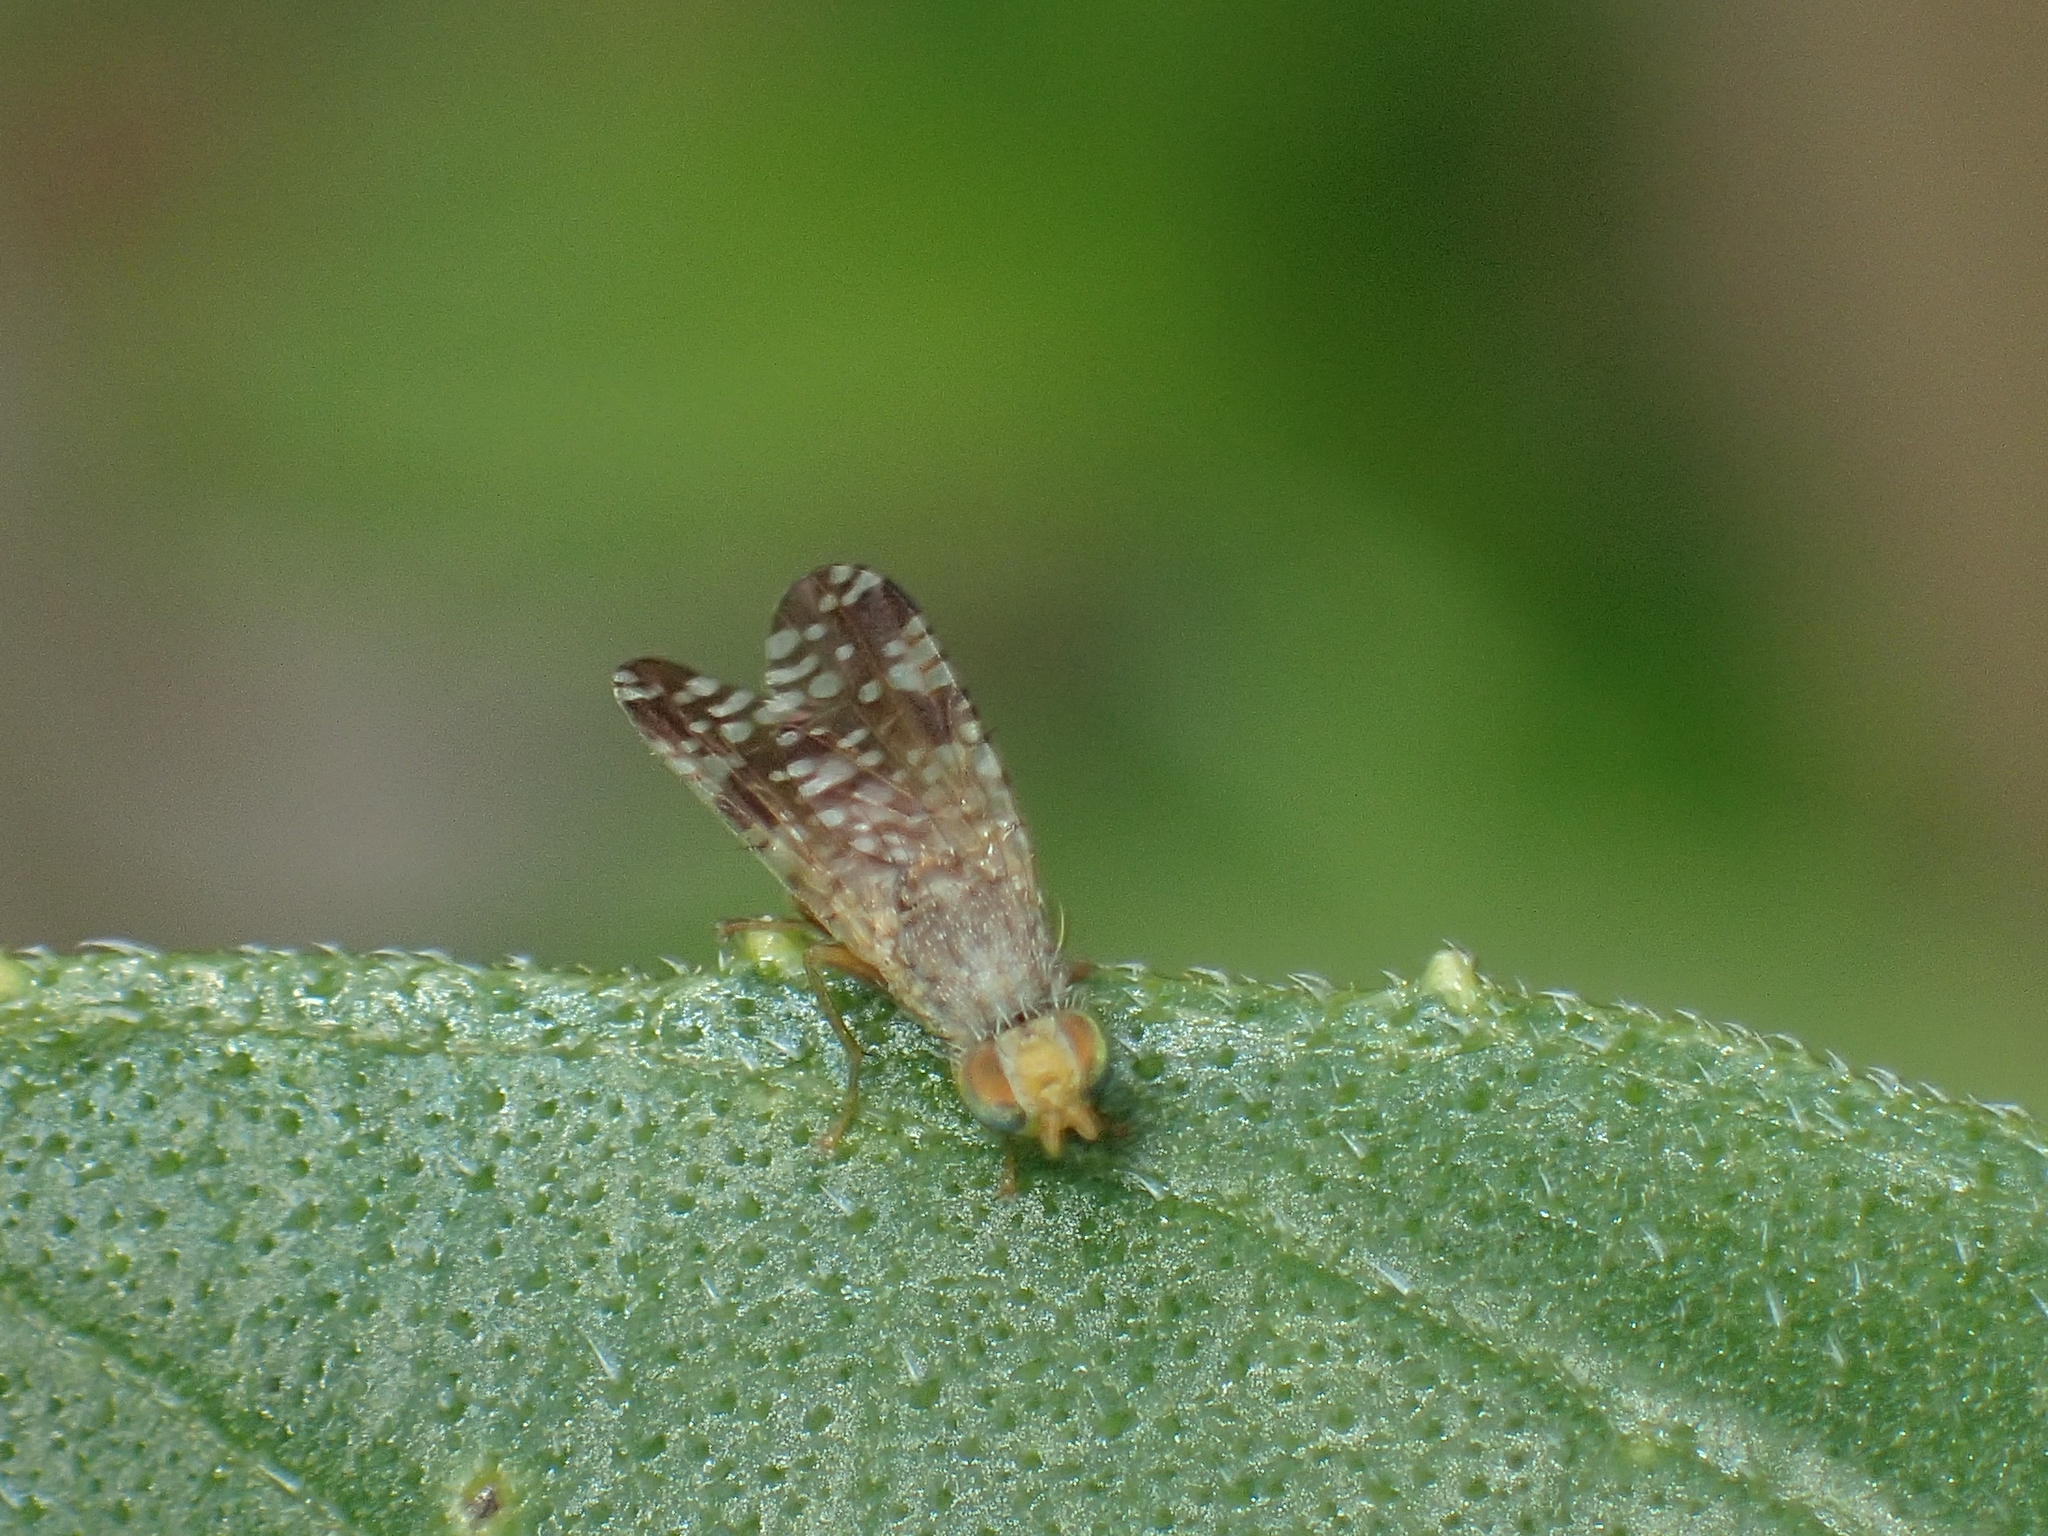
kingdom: Animalia
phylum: Arthropoda
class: Insecta
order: Diptera
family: Tephritidae
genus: Neotephritis
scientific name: Neotephritis finalis
